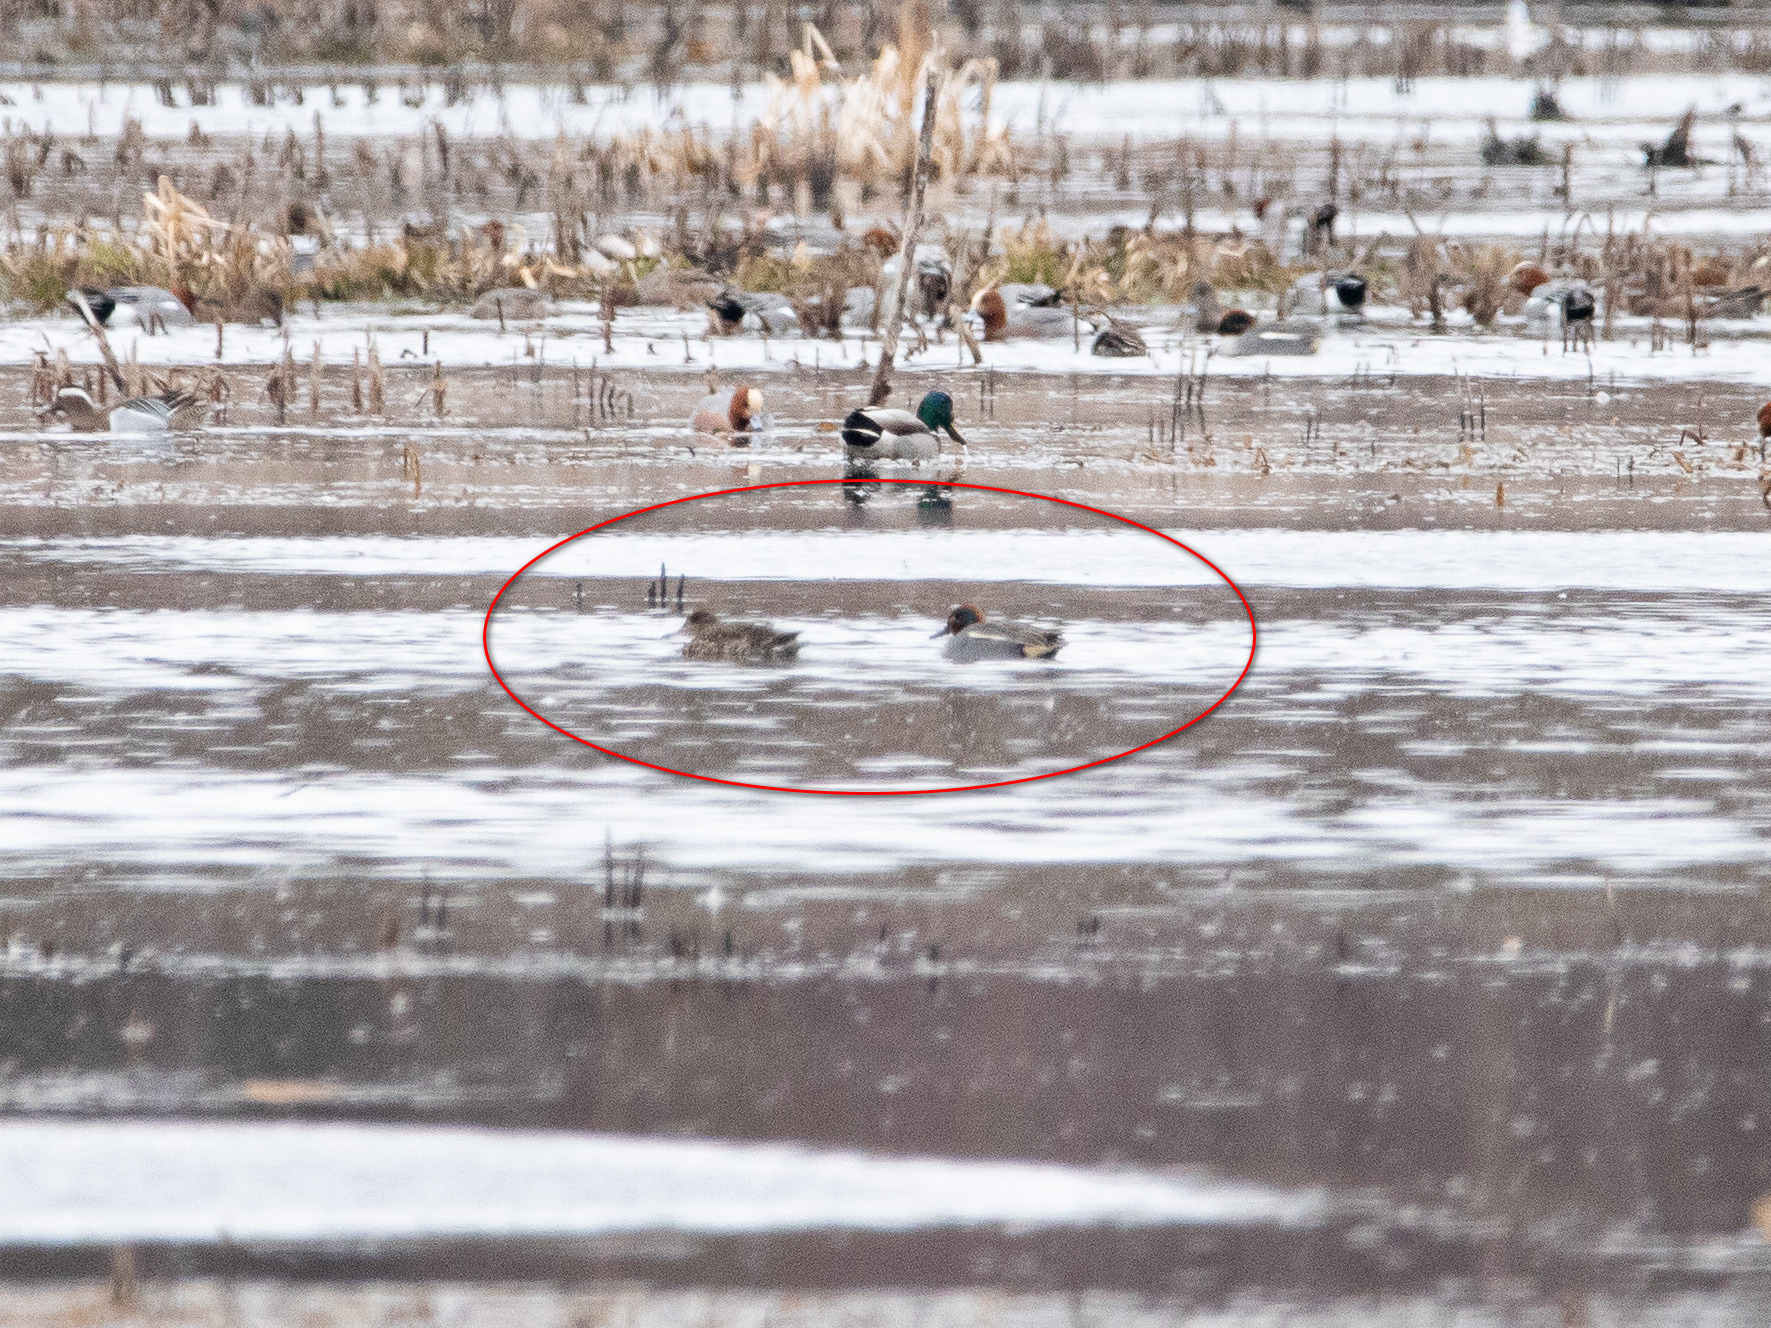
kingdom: Animalia
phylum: Chordata
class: Aves
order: Anseriformes
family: Anatidae
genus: Anas
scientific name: Anas crecca
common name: Eurasian teal
